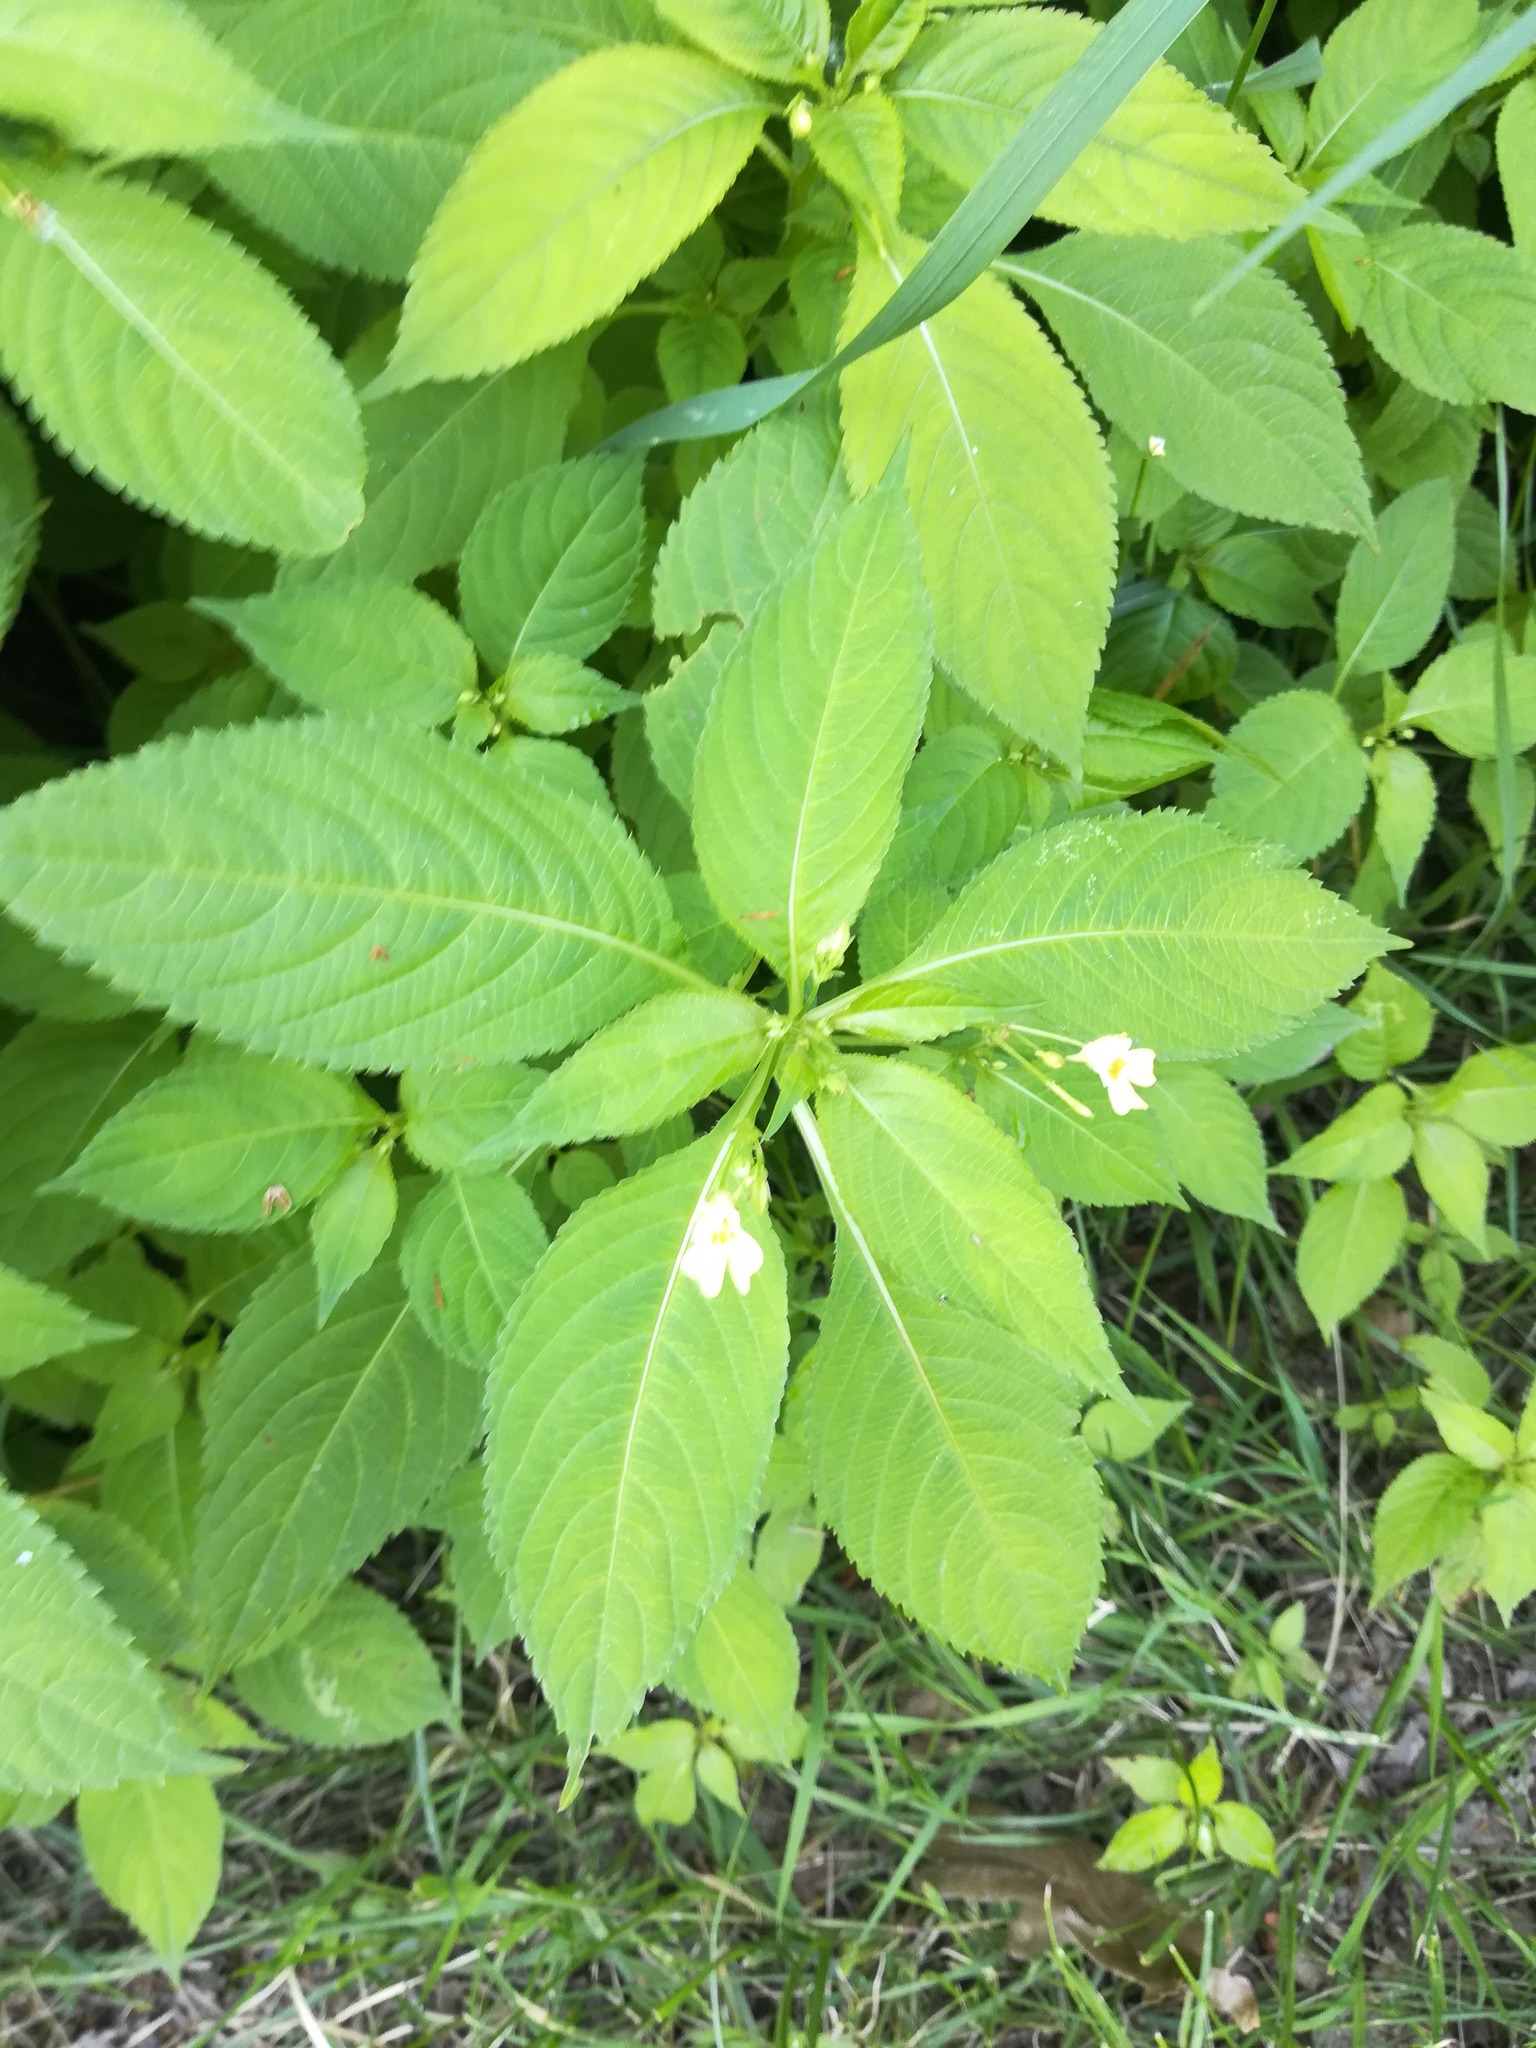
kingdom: Plantae
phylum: Tracheophyta
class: Magnoliopsida
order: Ericales
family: Balsaminaceae
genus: Impatiens
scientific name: Impatiens parviflora
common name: Small balsam
